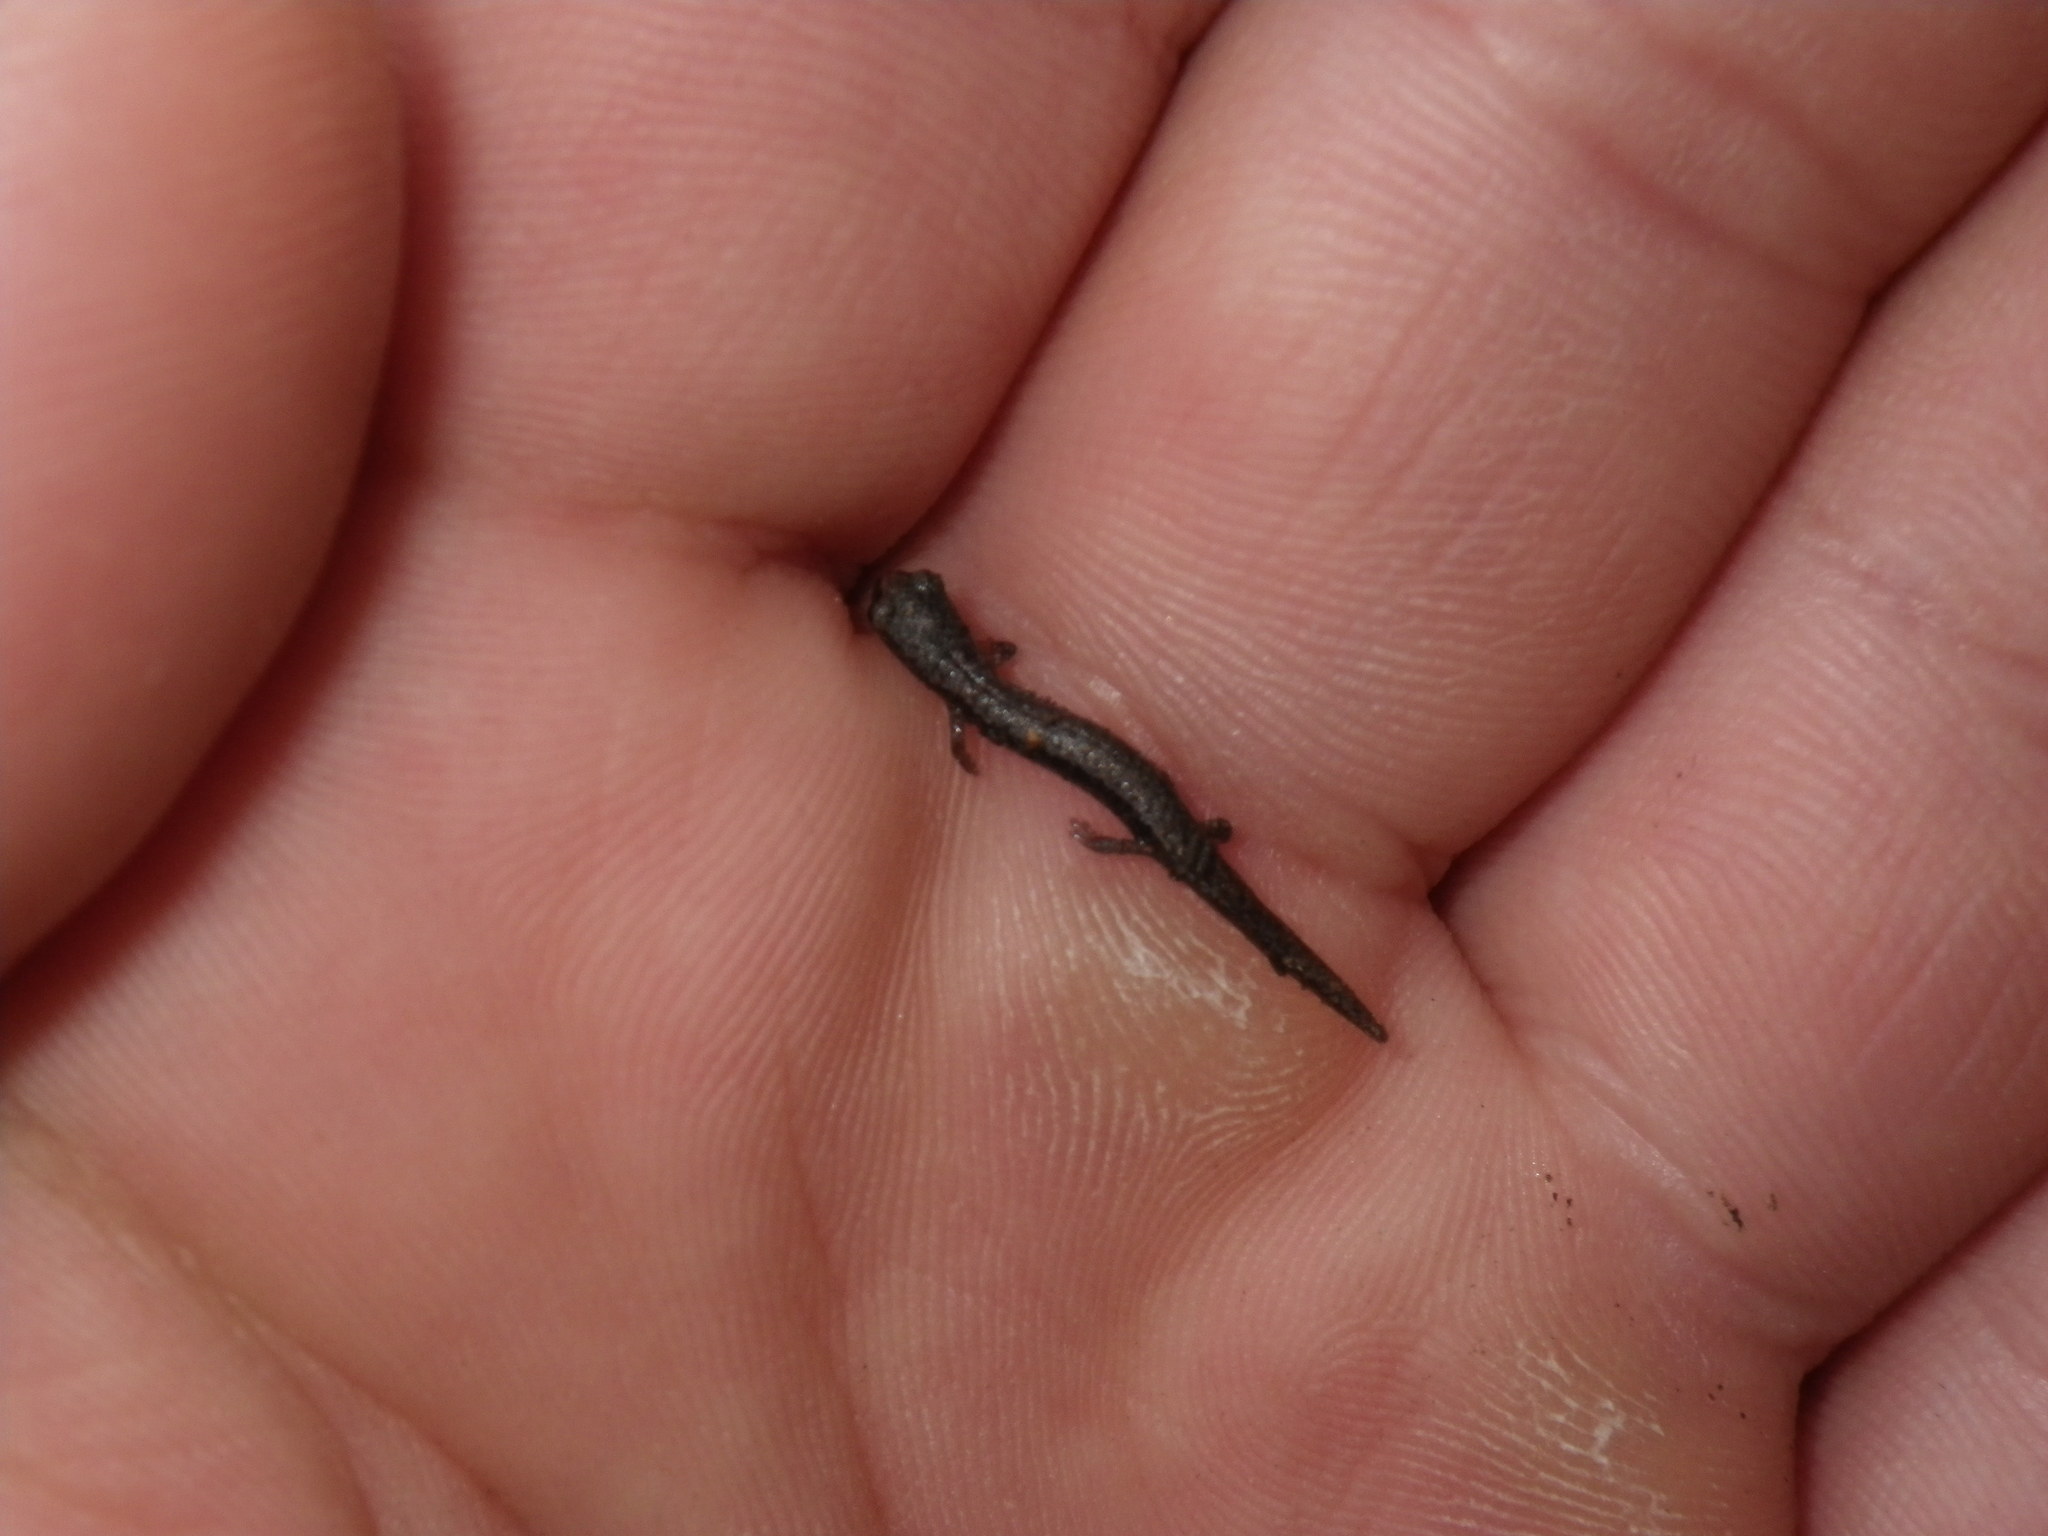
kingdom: Animalia
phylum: Chordata
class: Amphibia
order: Caudata
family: Plethodontidae
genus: Batrachoseps
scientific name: Batrachoseps attenuatus
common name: California slender salamander
